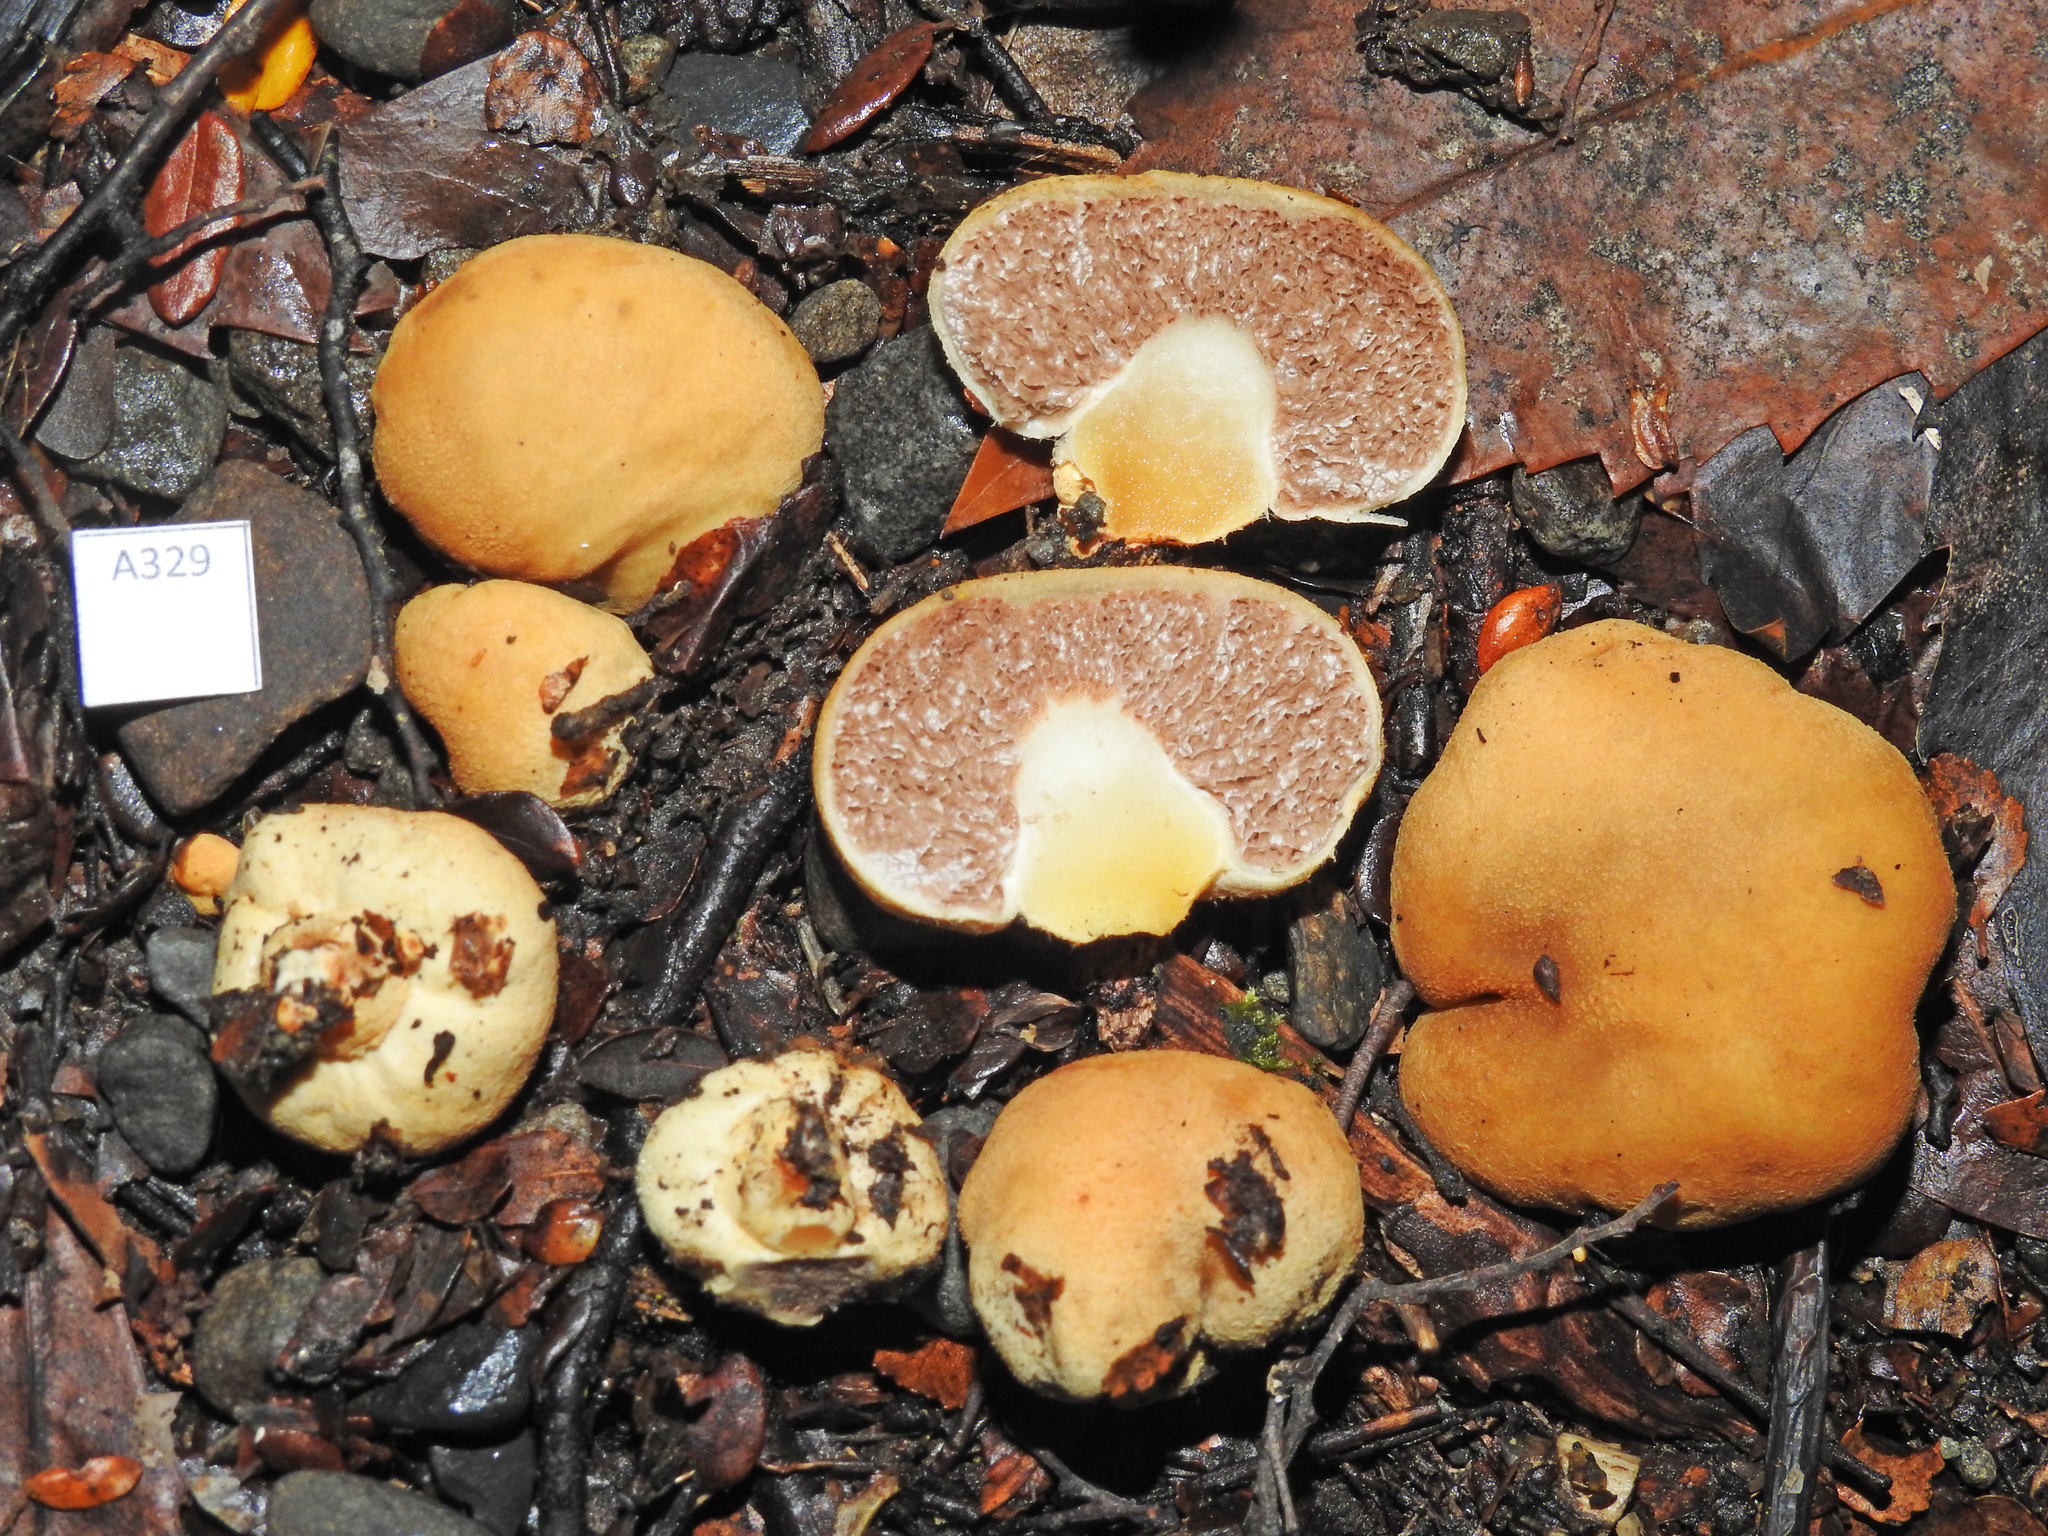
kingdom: Fungi
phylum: Basidiomycota
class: Agaricomycetes
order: Agaricales
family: Cortinariaceae
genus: Cortinarius
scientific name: Cortinarius cartilagineus
